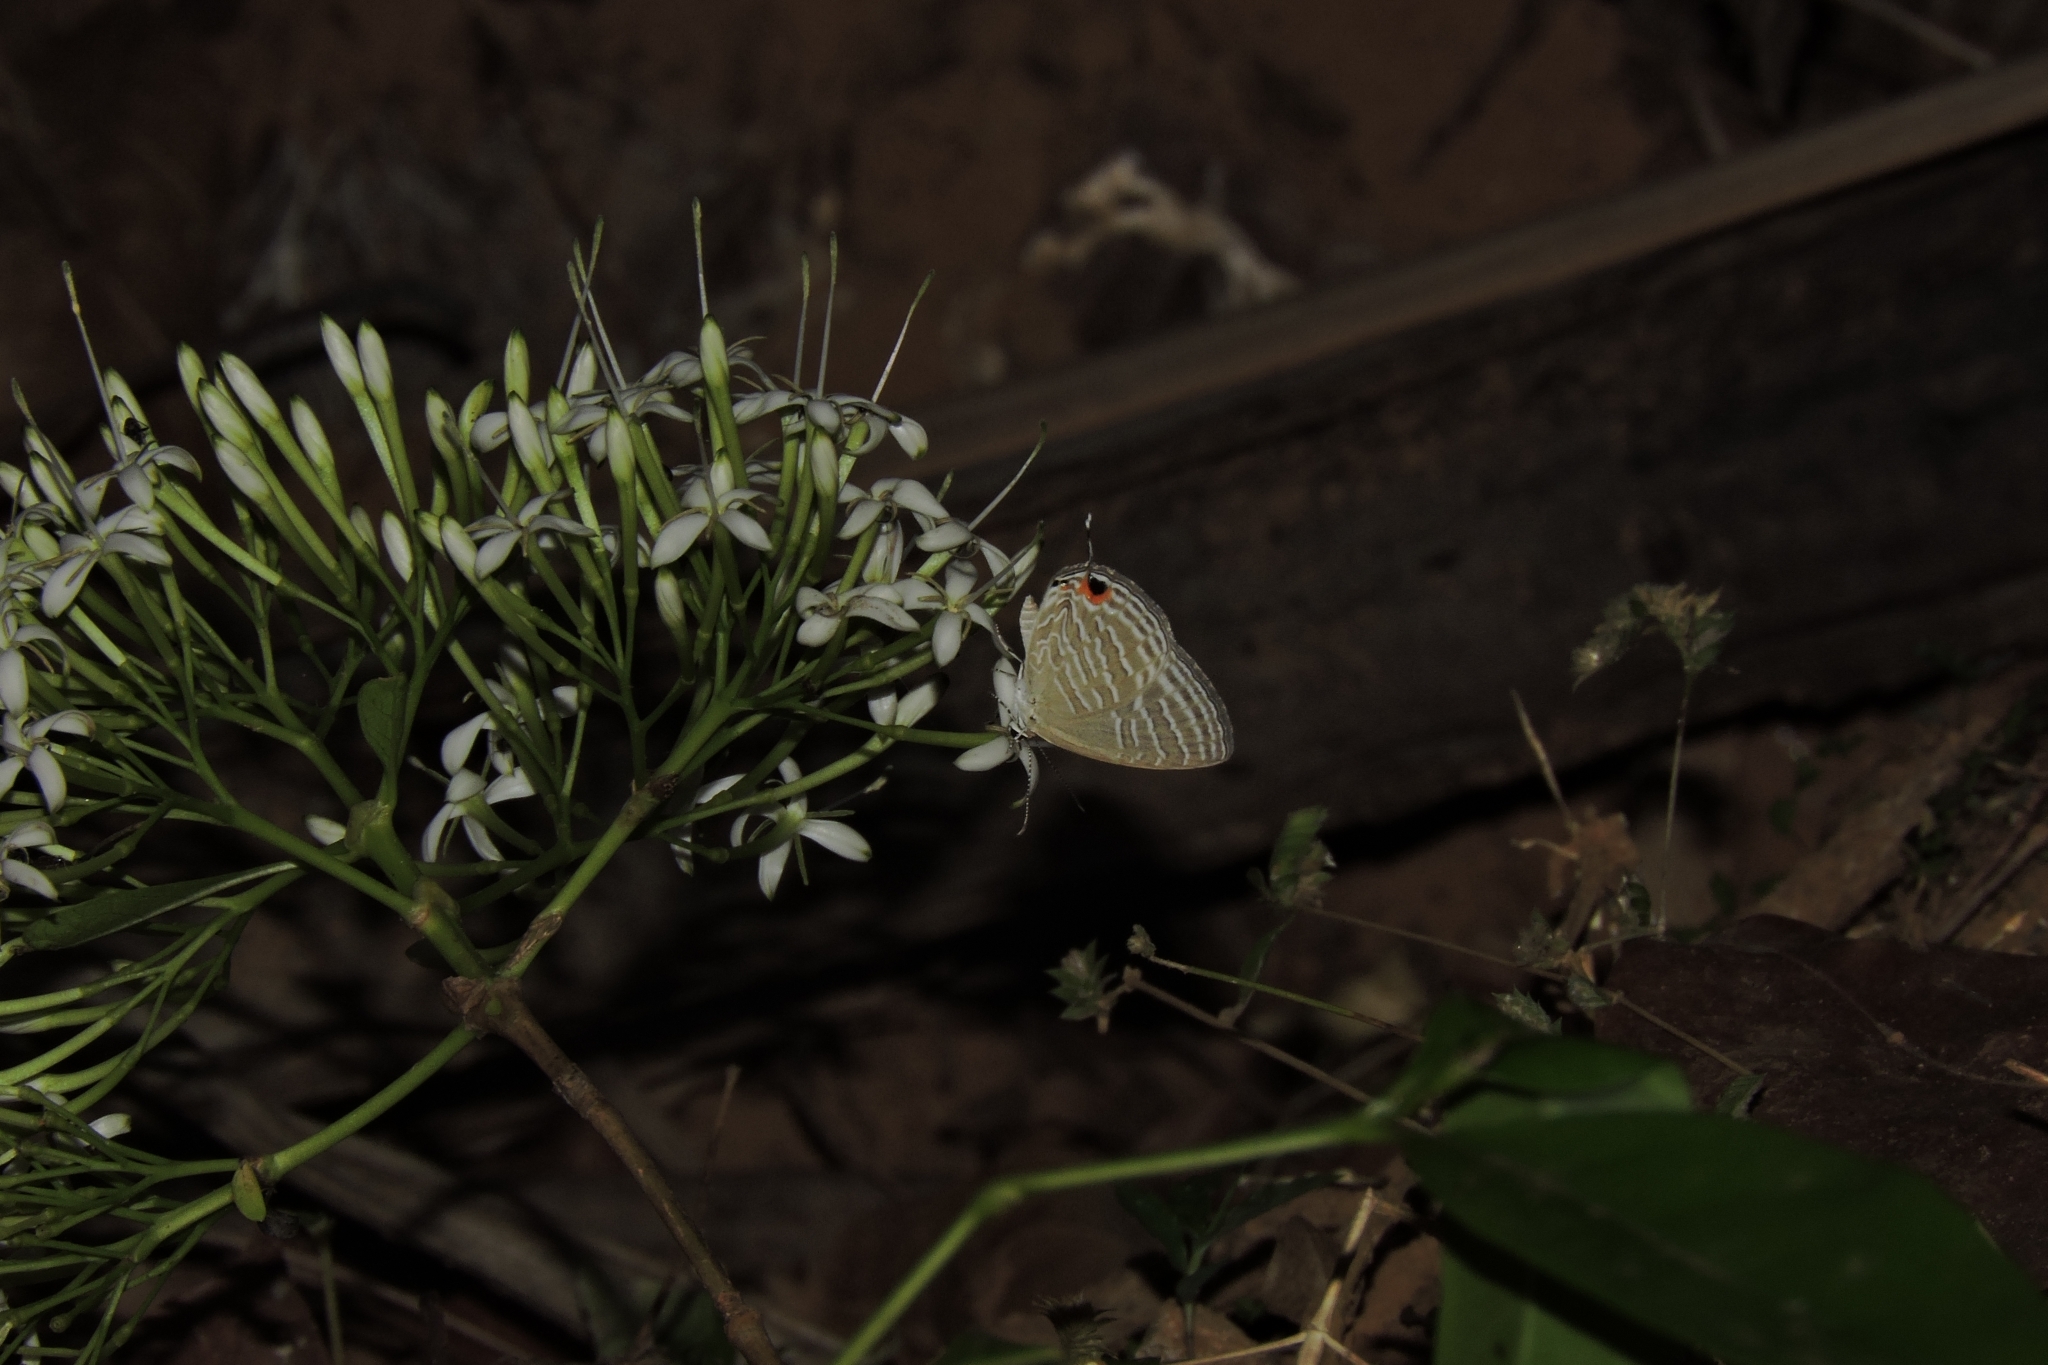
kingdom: Animalia
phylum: Arthropoda
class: Insecta
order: Lepidoptera
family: Lycaenidae
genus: Jamides
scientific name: Jamides celeno
